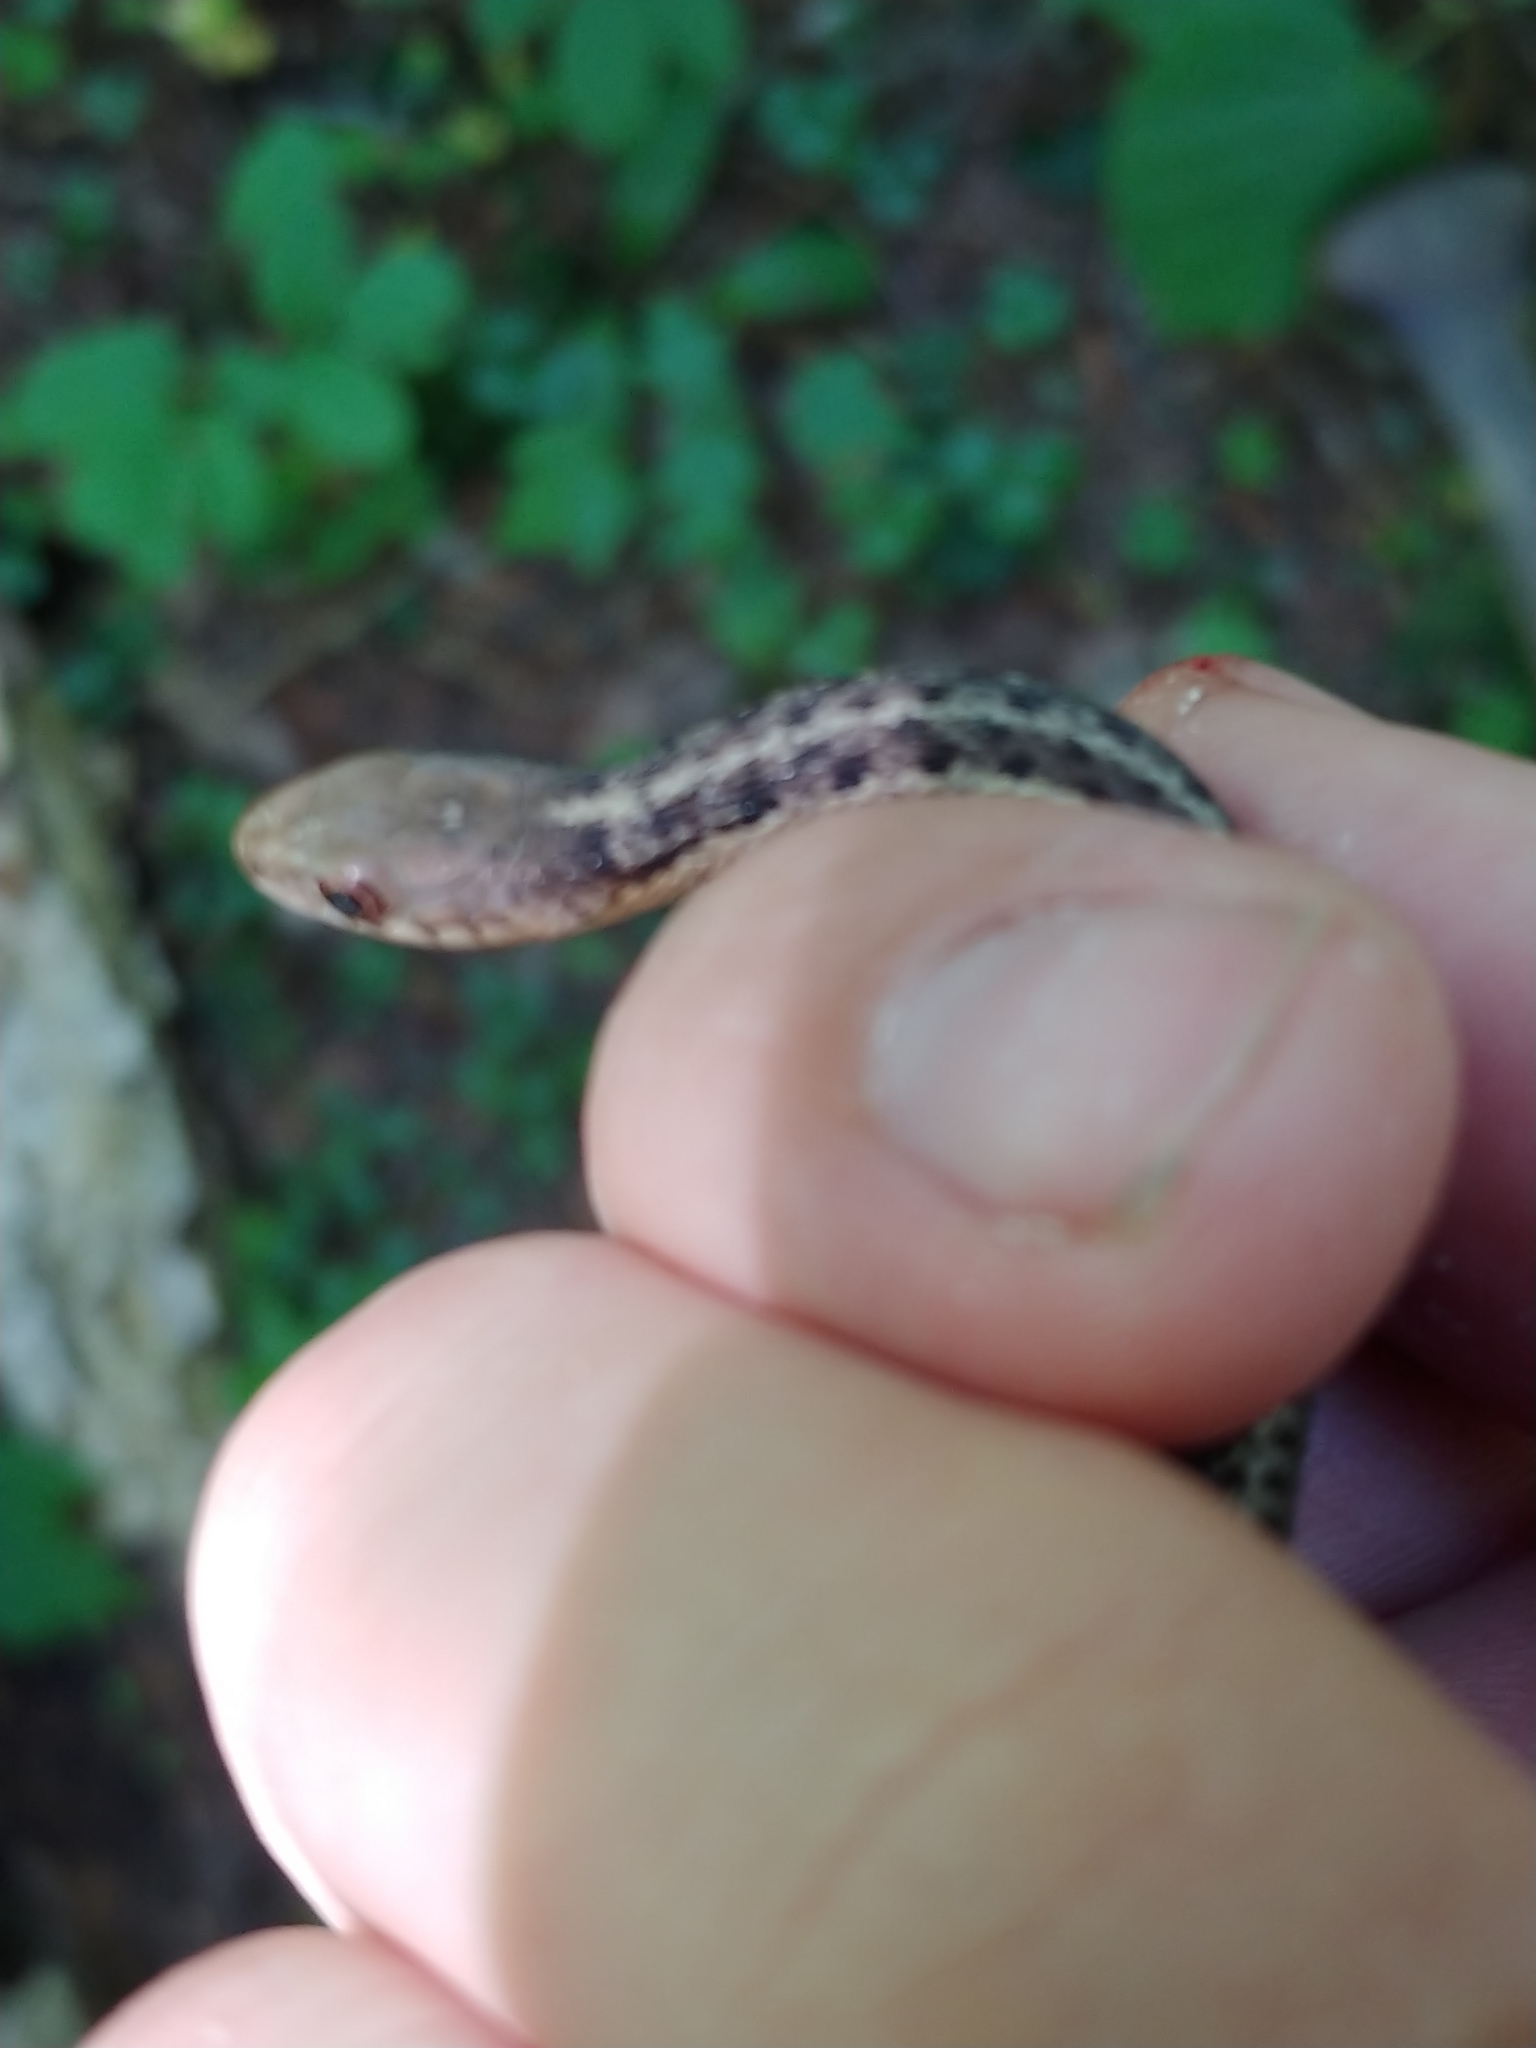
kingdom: Animalia
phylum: Chordata
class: Squamata
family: Colubridae
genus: Thamnophis
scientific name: Thamnophis sirtalis
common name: Common garter snake
